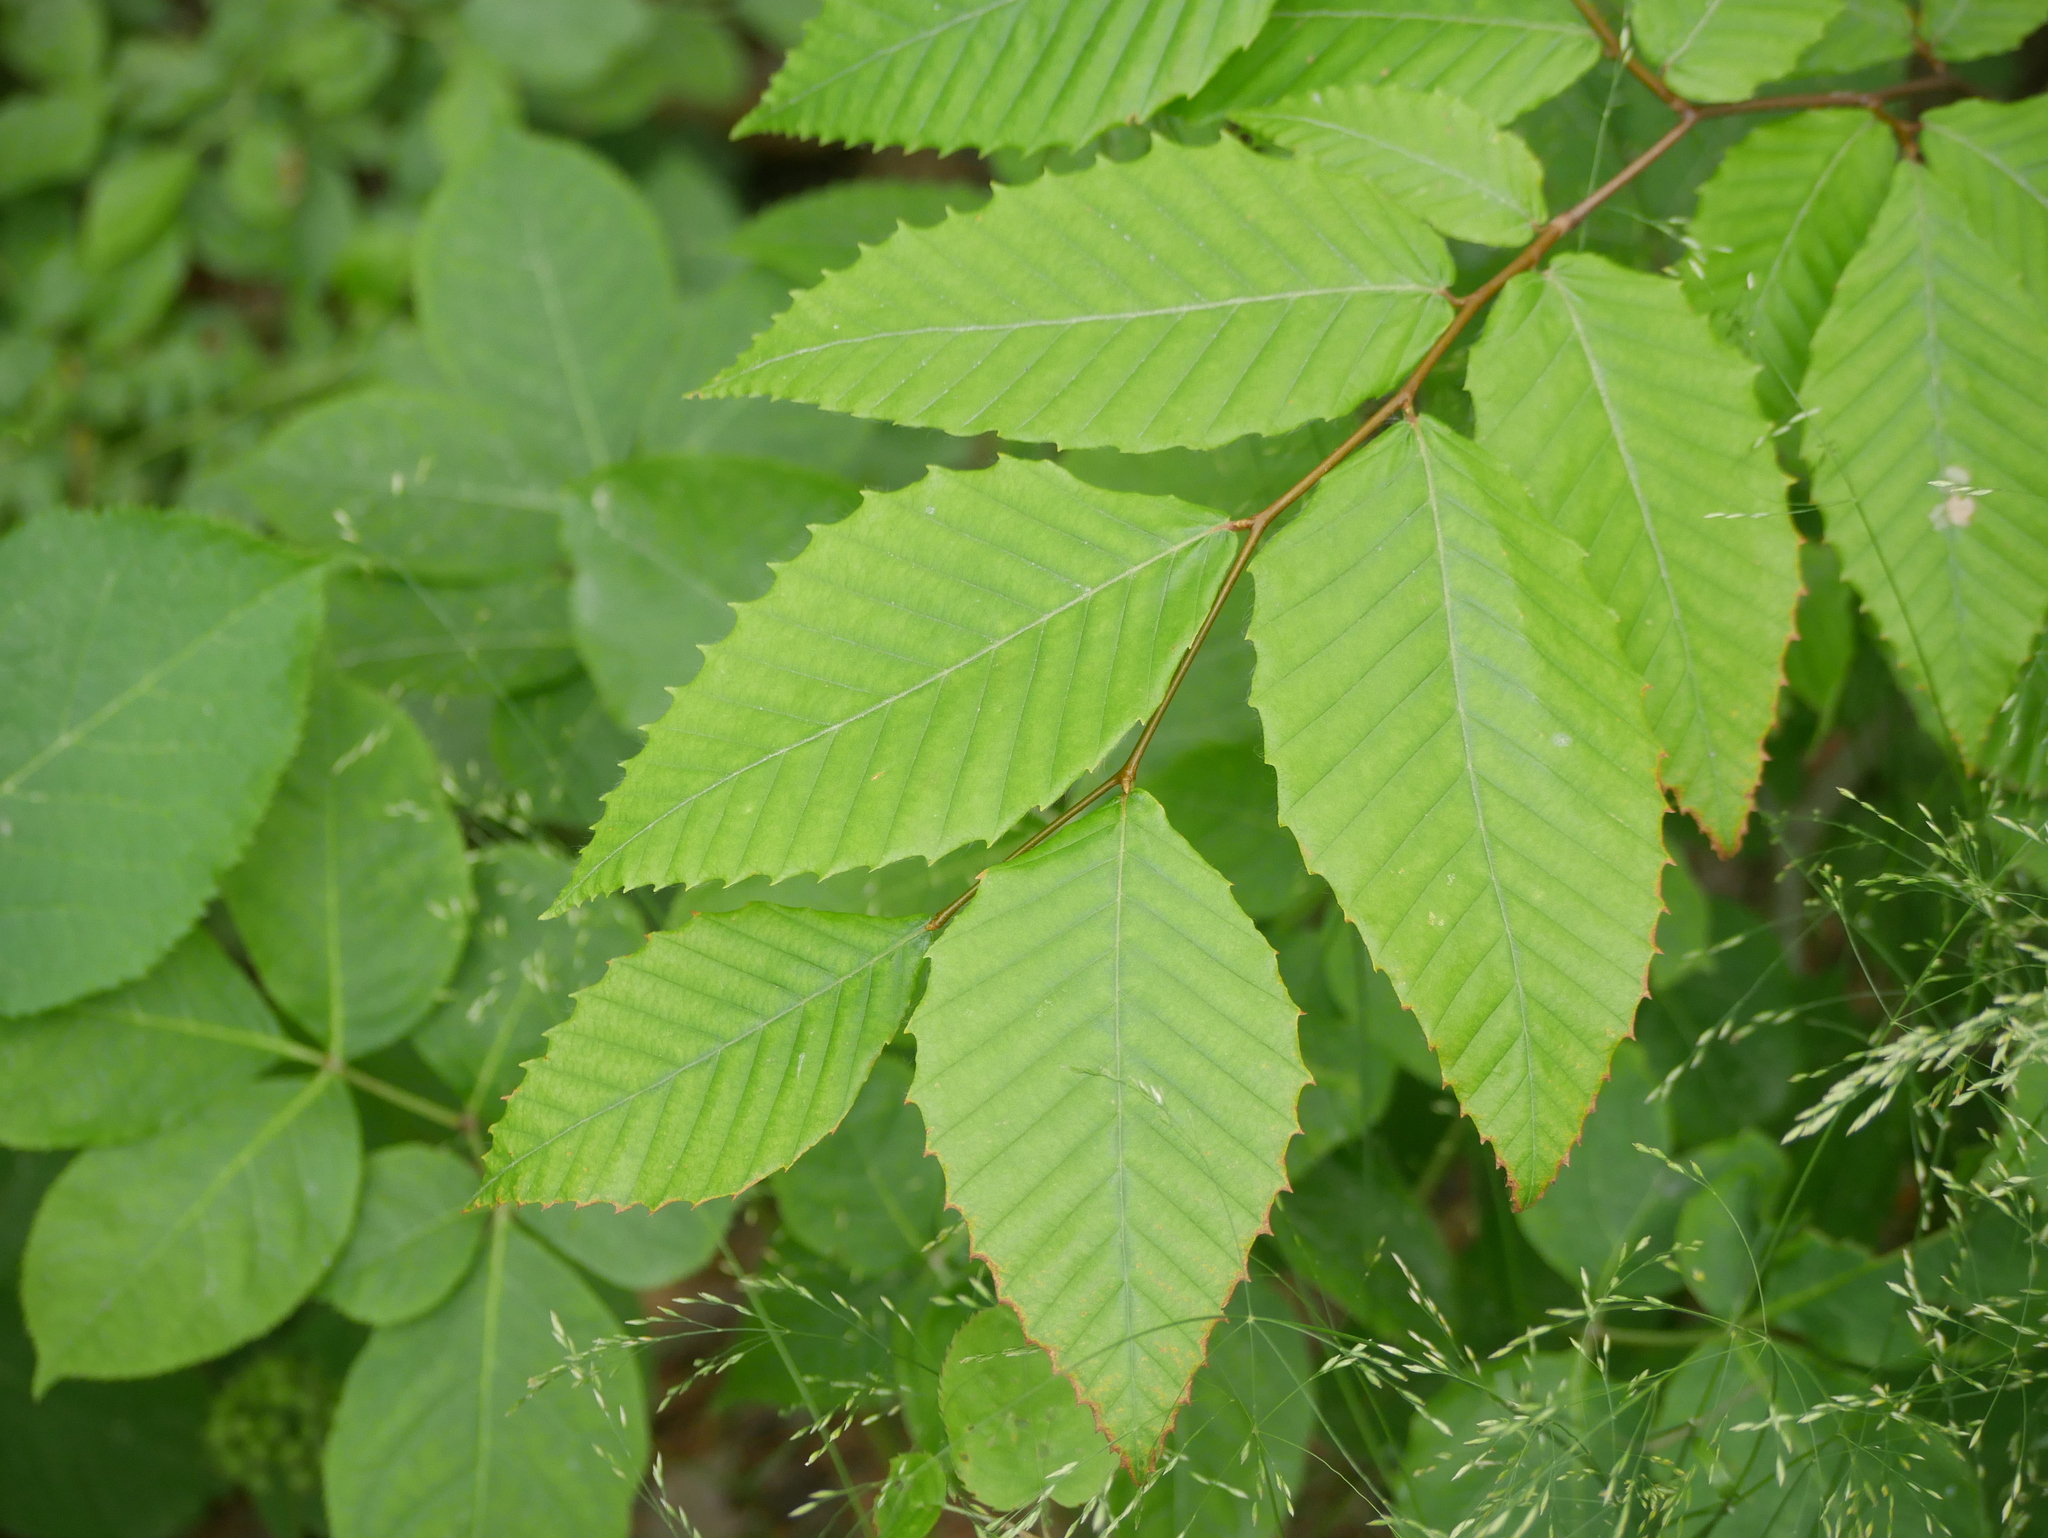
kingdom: Plantae
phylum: Tracheophyta
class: Magnoliopsida
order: Fagales
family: Fagaceae
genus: Fagus
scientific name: Fagus grandifolia
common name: American beech
